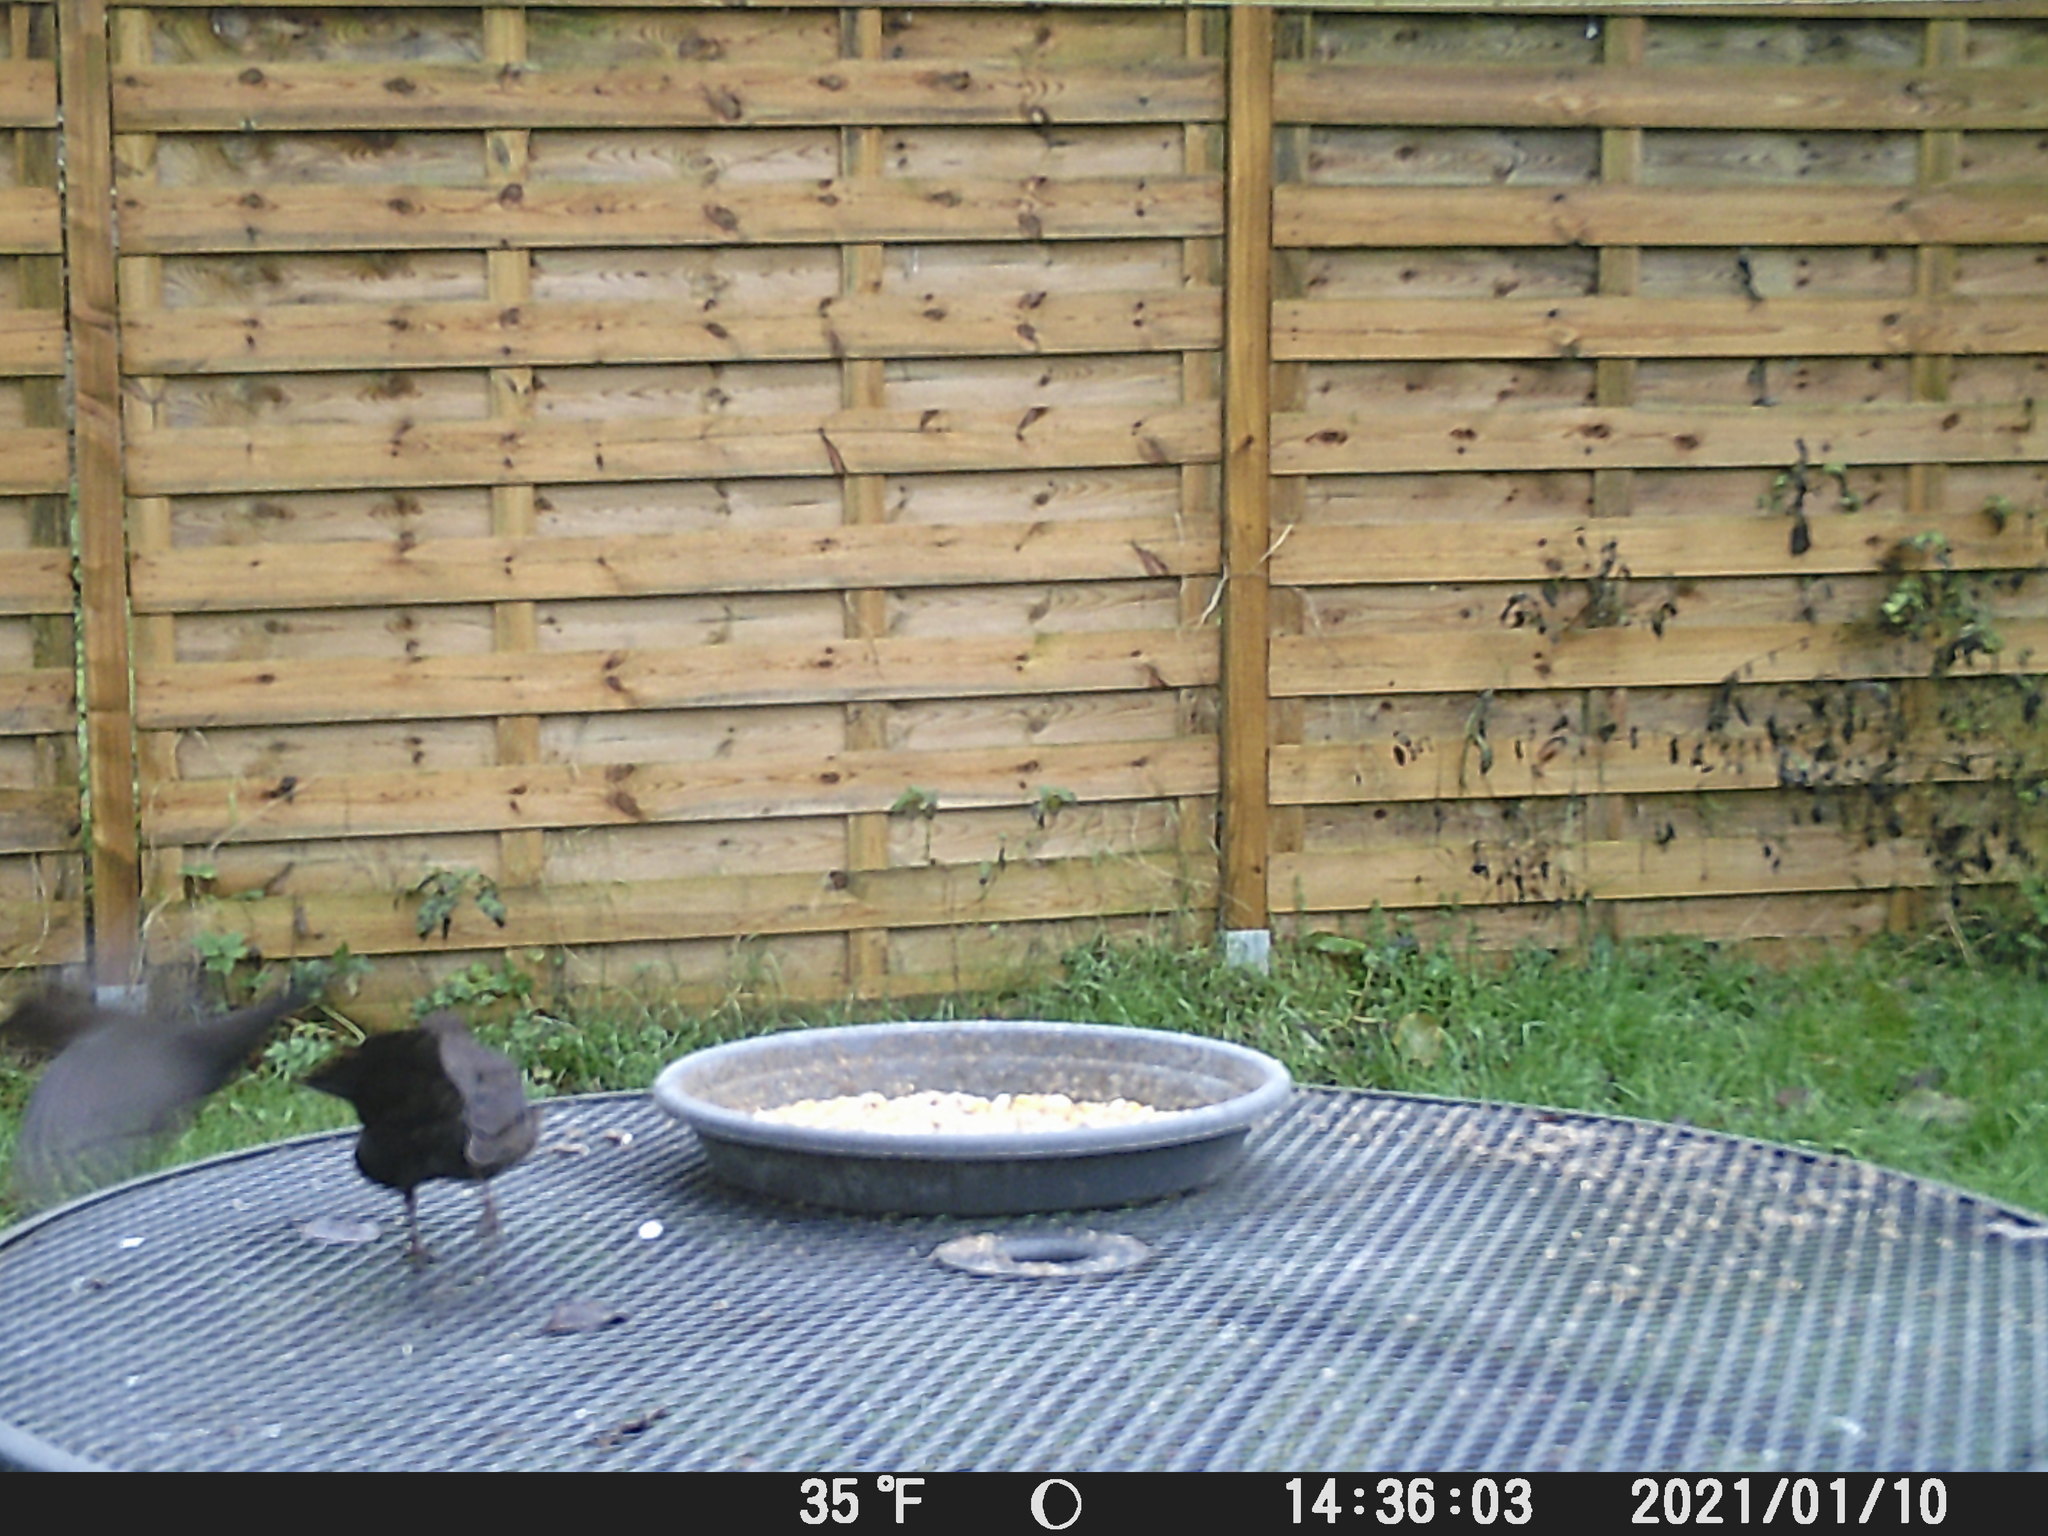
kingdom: Animalia
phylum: Chordata
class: Aves
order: Passeriformes
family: Turdidae
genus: Turdus
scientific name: Turdus merula
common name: Common blackbird
